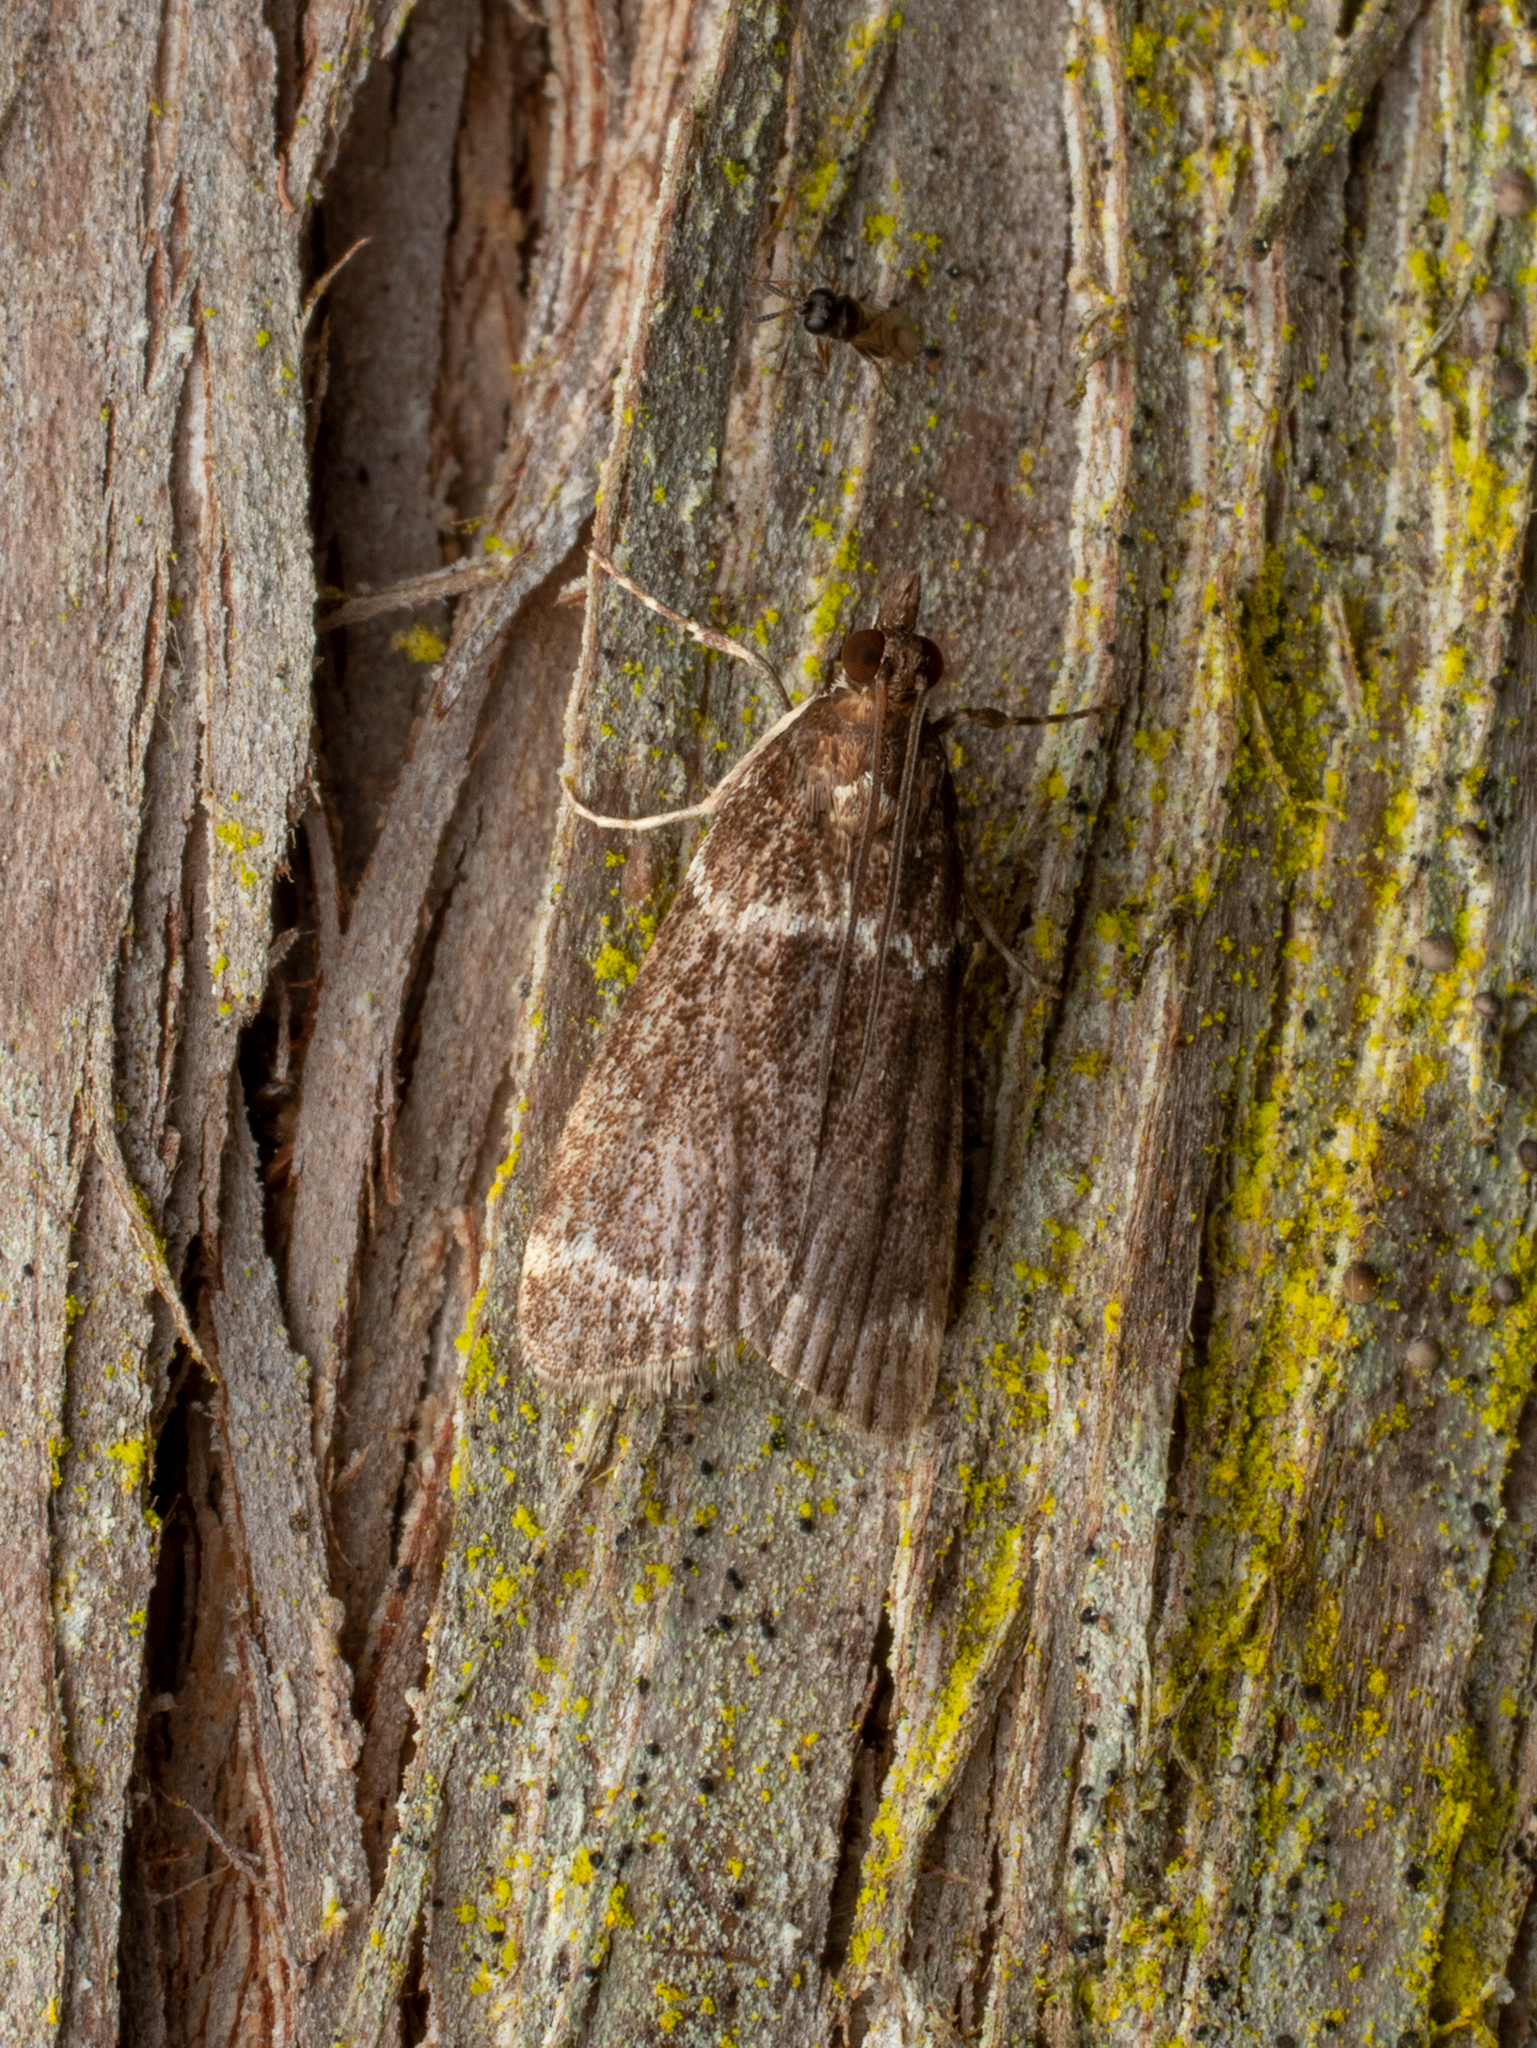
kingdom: Animalia
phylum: Arthropoda
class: Insecta
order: Lepidoptera
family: Crambidae
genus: Eudonia
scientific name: Eudonia leucogramma
